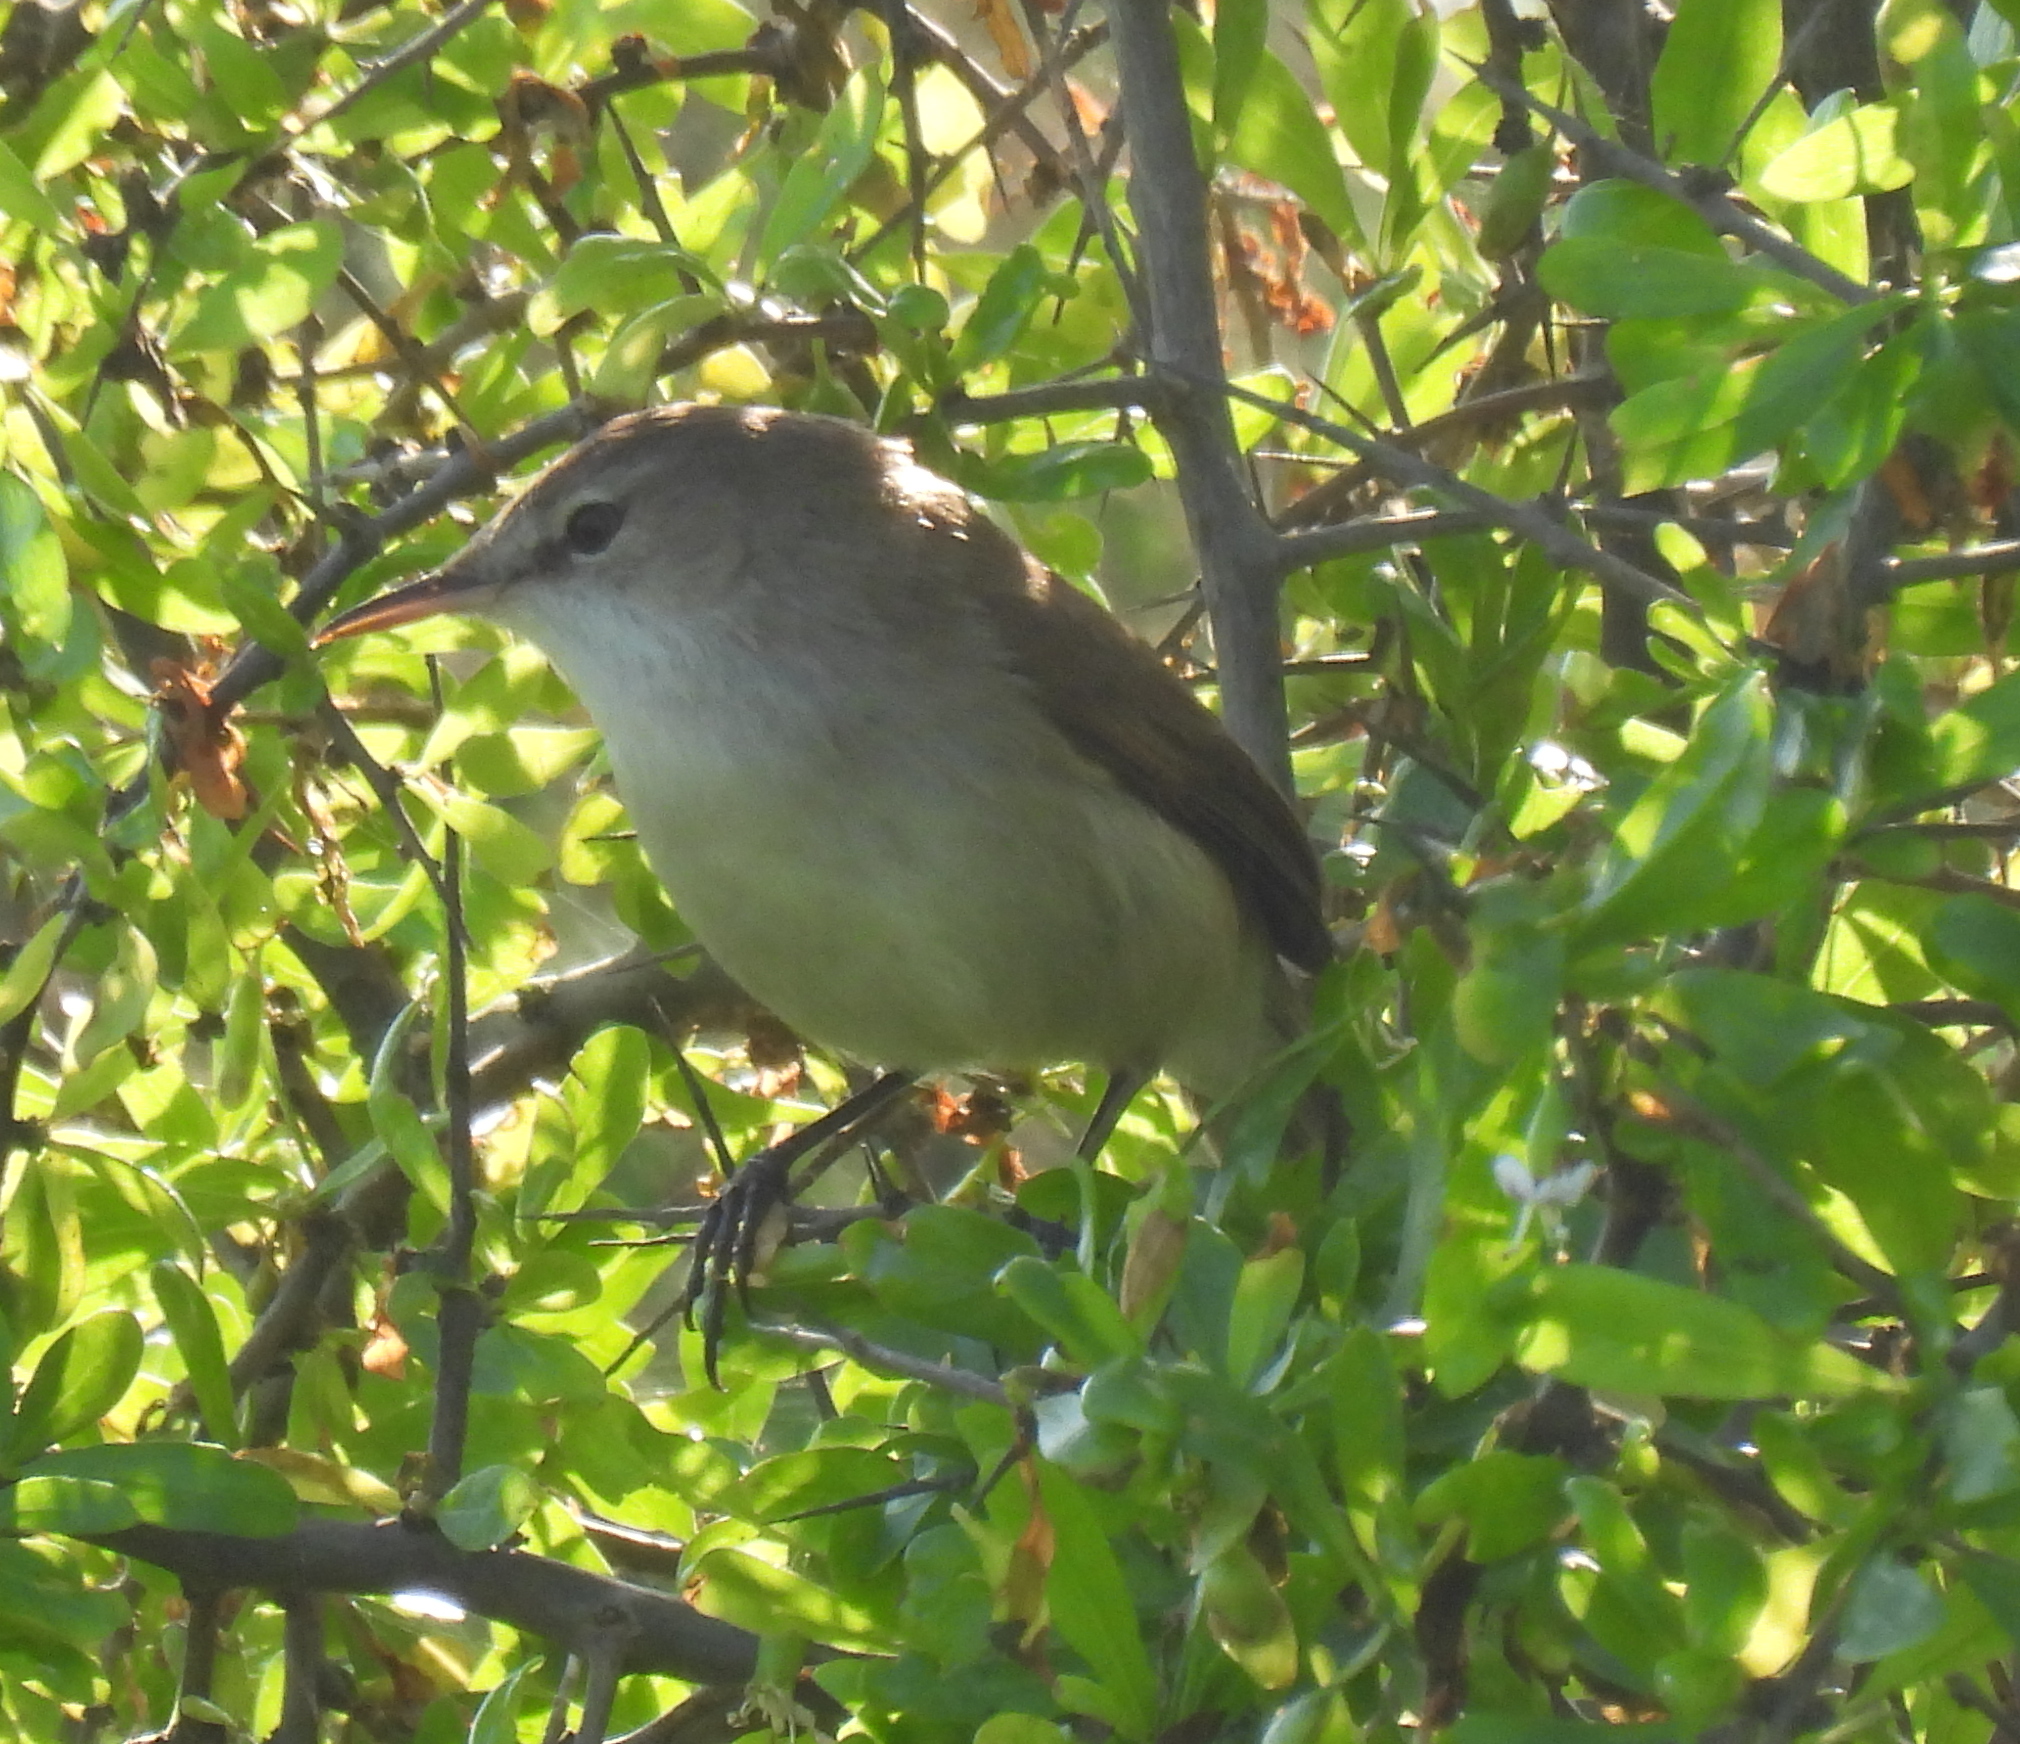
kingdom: Animalia
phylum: Chordata
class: Aves
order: Passeriformes
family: Acrocephalidae
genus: Acrocephalus
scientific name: Acrocephalus gracilirostris
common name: Lesser swamp warbler
